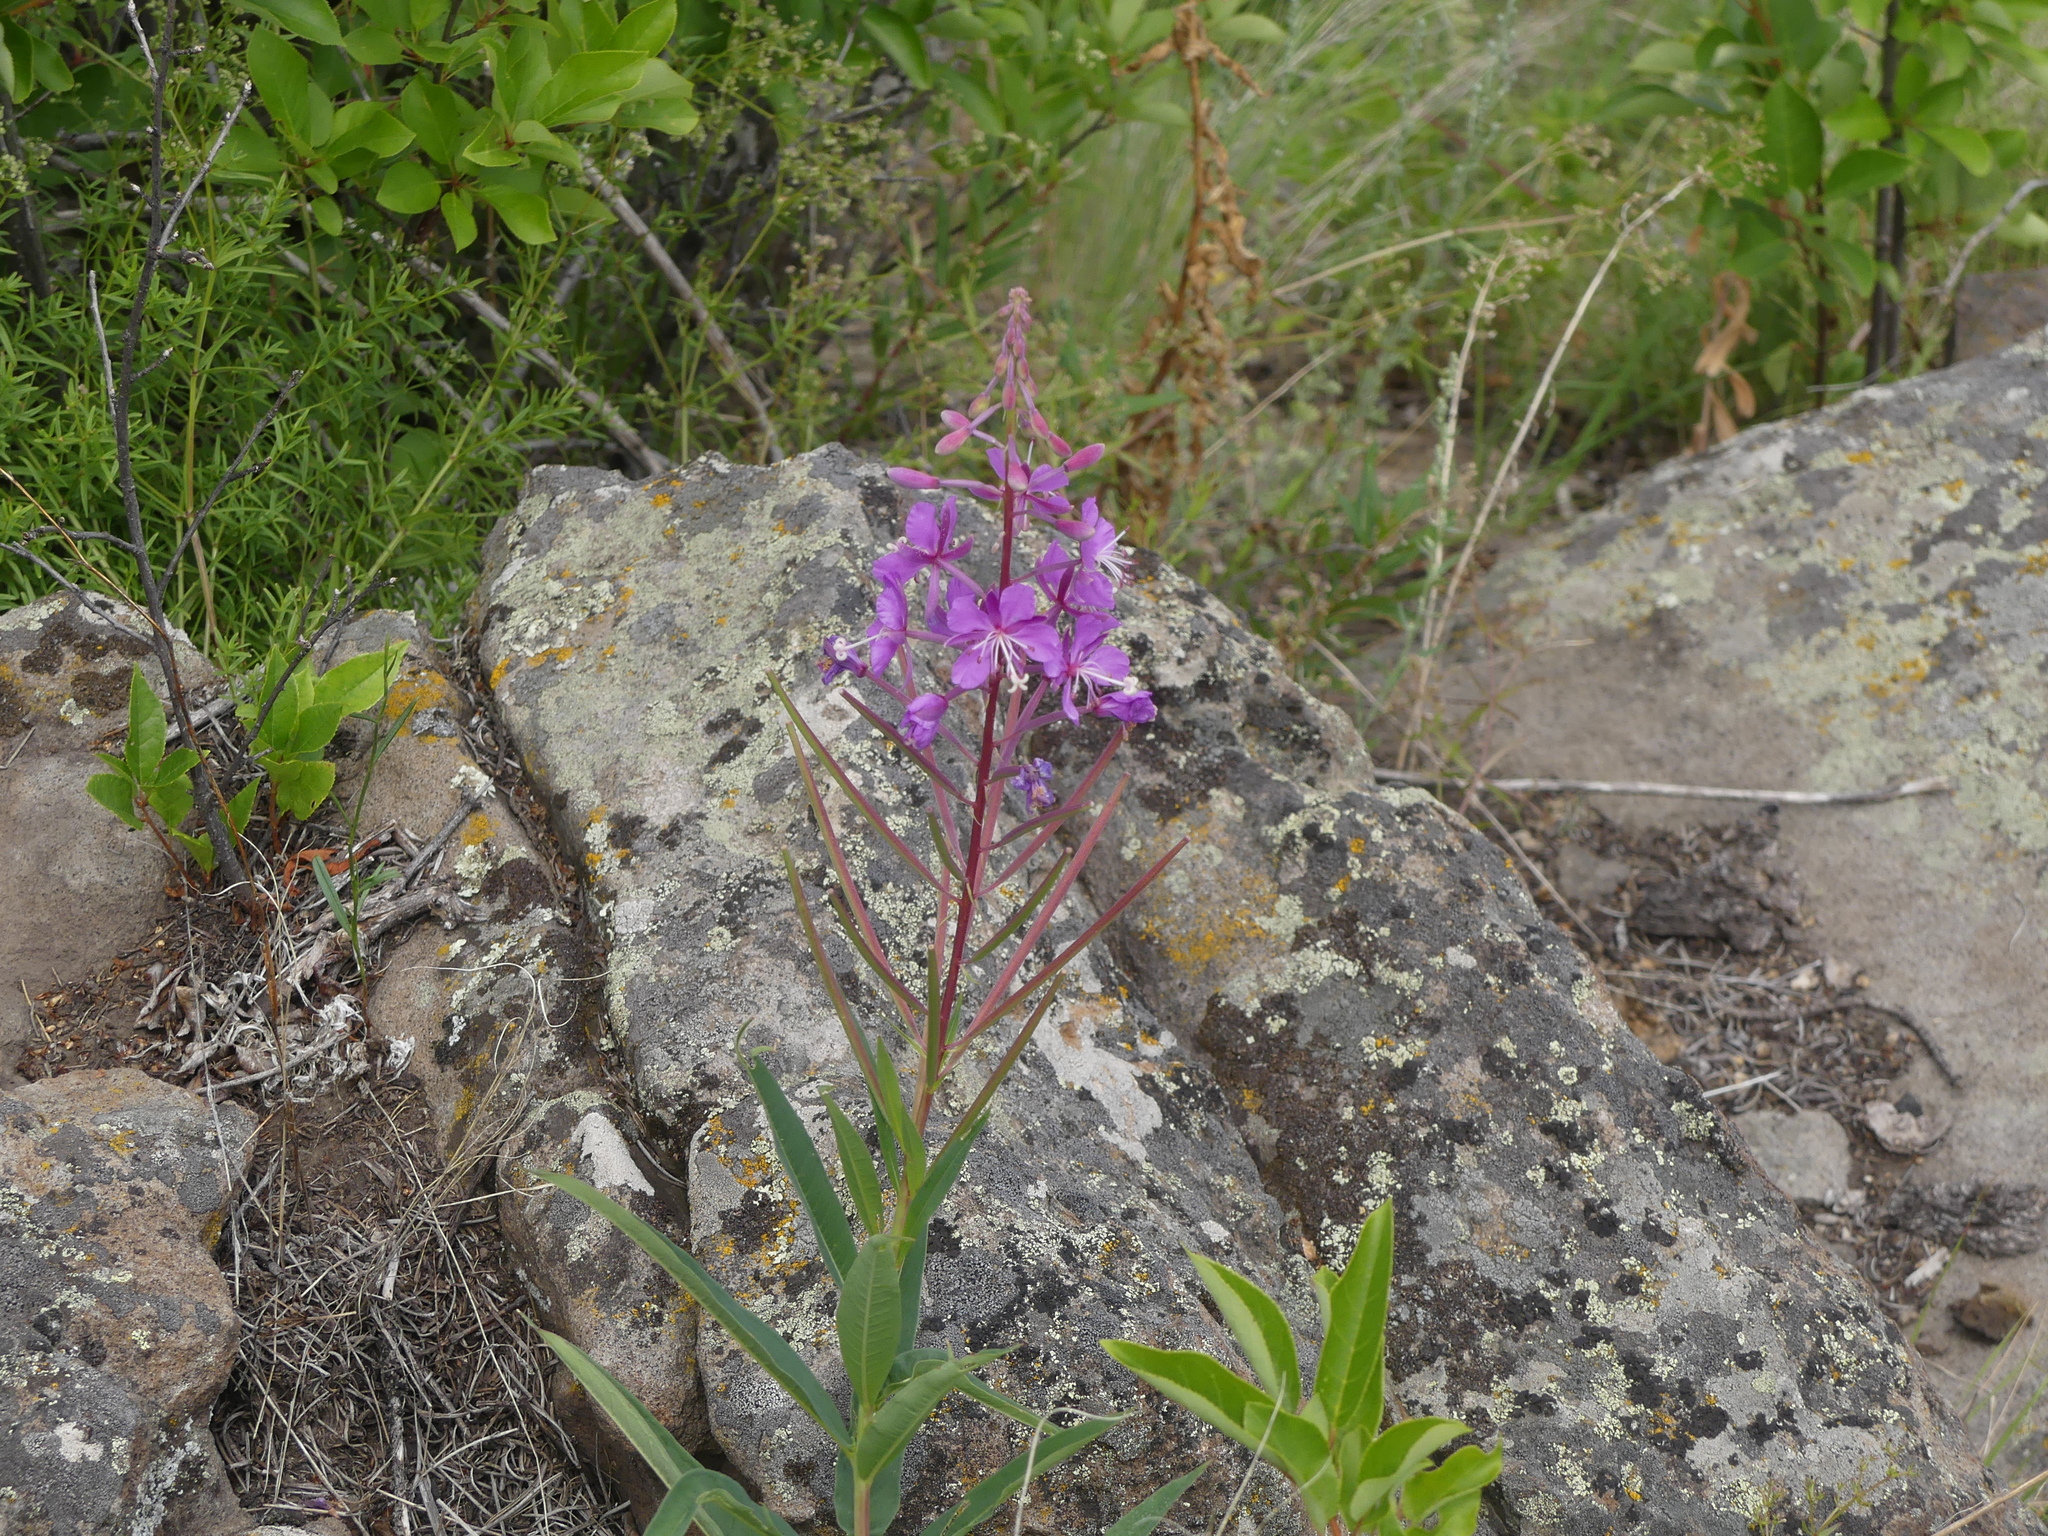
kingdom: Plantae
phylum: Tracheophyta
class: Magnoliopsida
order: Myrtales
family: Onagraceae
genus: Chamaenerion
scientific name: Chamaenerion angustifolium
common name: Fireweed
